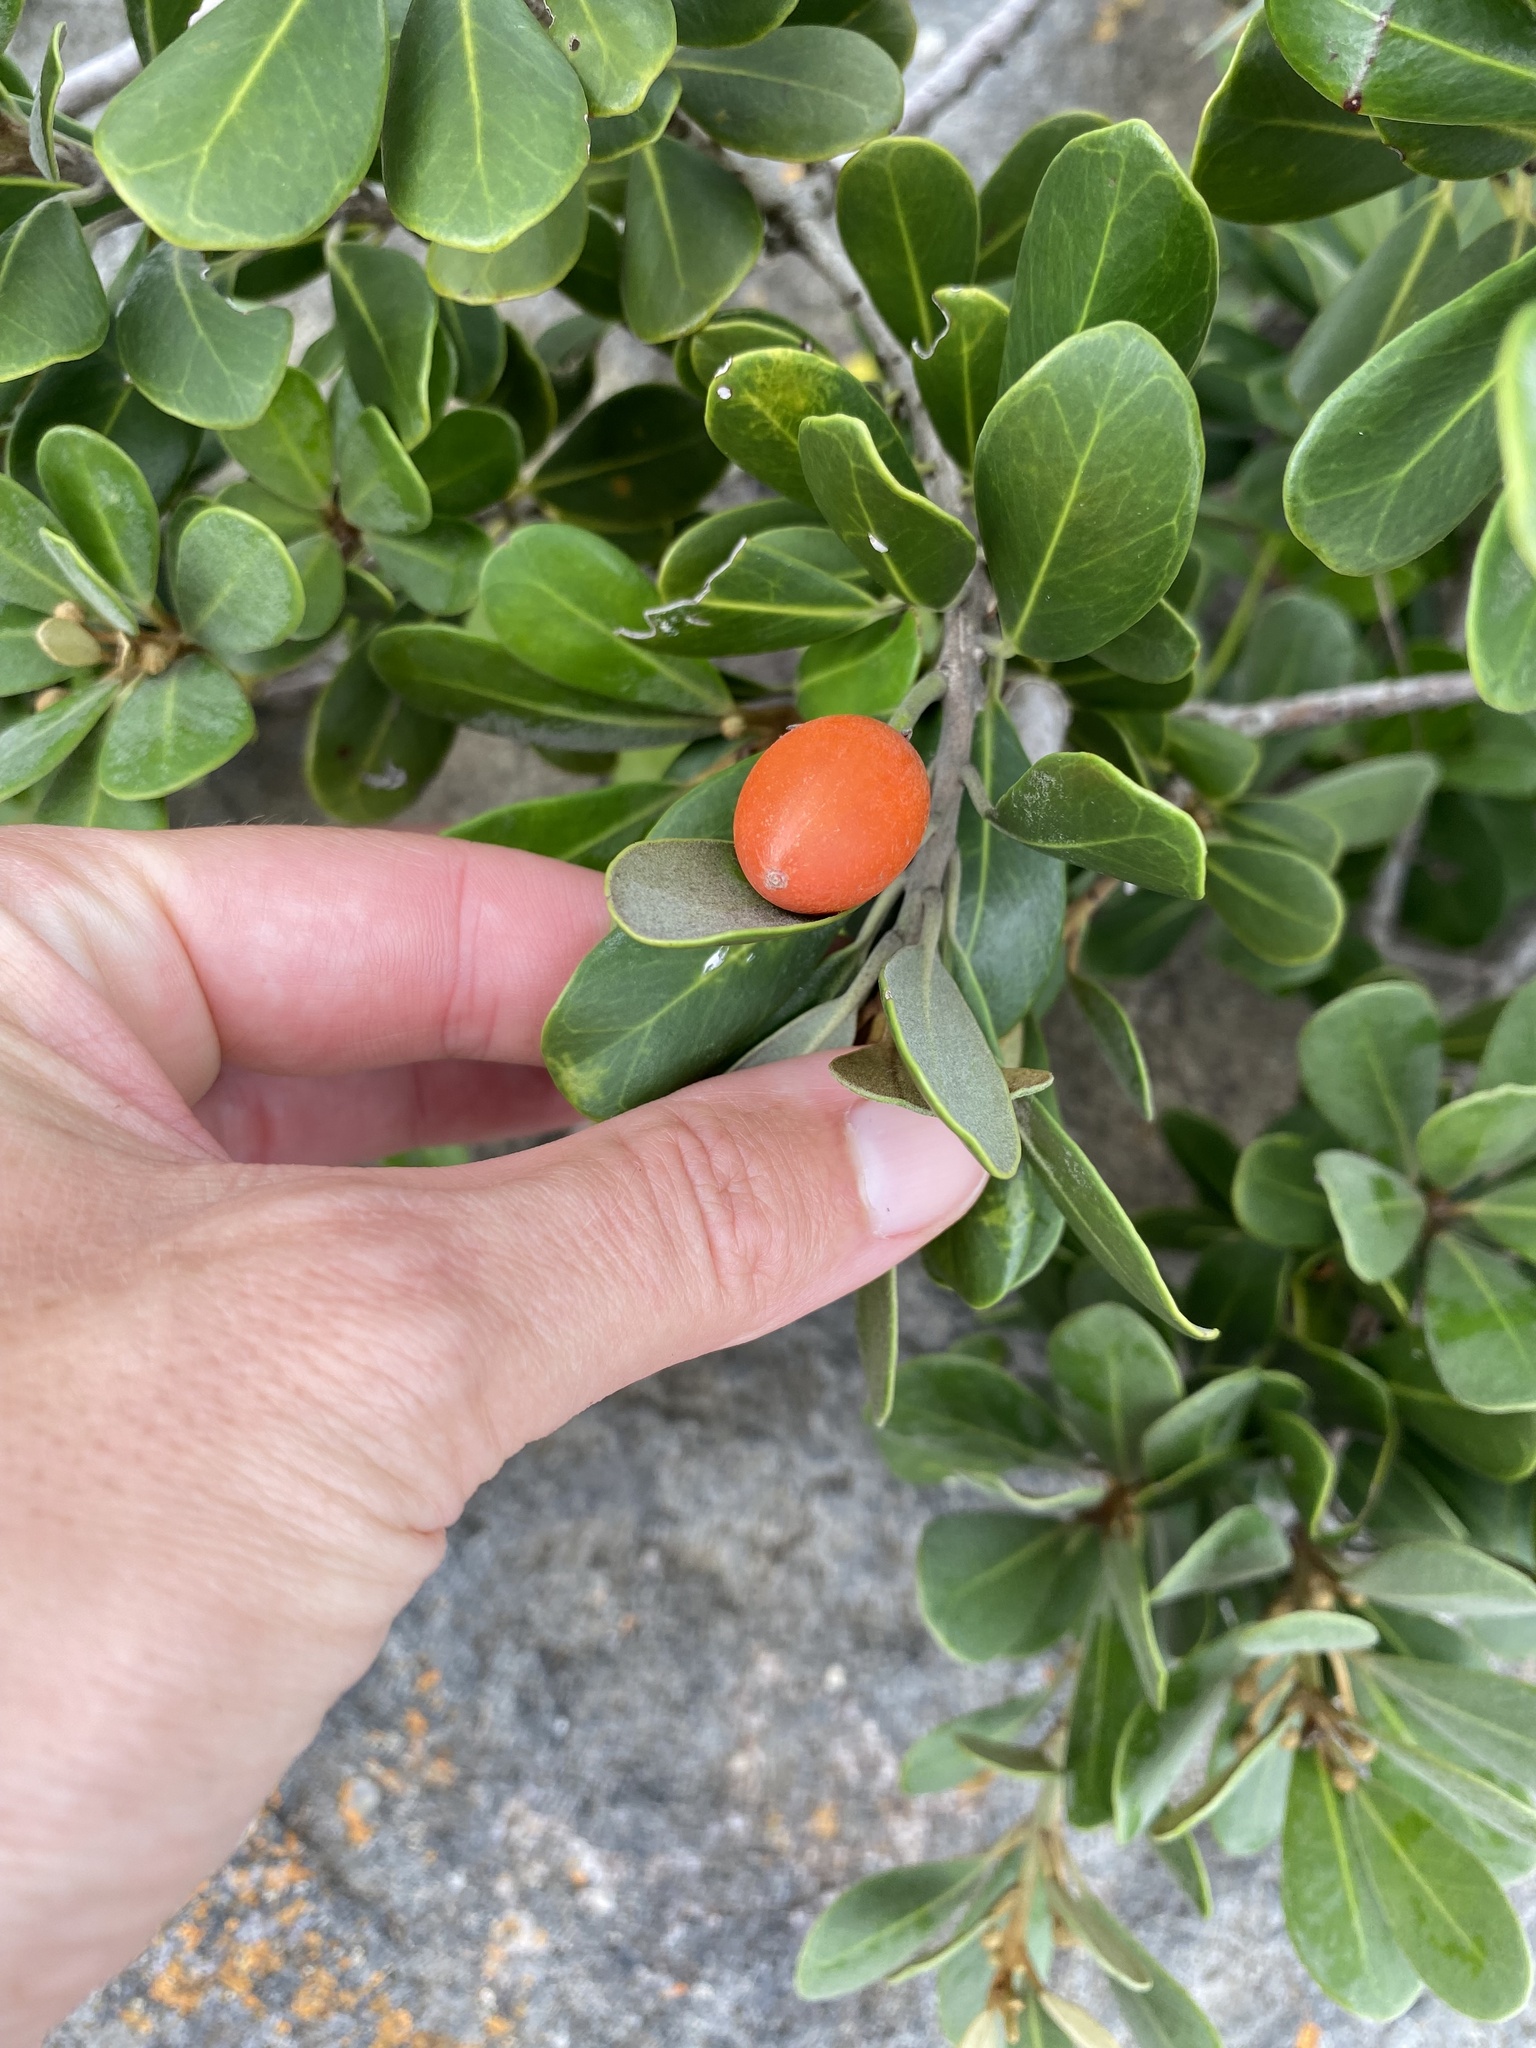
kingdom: Plantae
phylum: Tracheophyta
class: Magnoliopsida
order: Ericales
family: Sapotaceae
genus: Mimusops
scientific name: Mimusops caffra
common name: Coastal red milkwood
